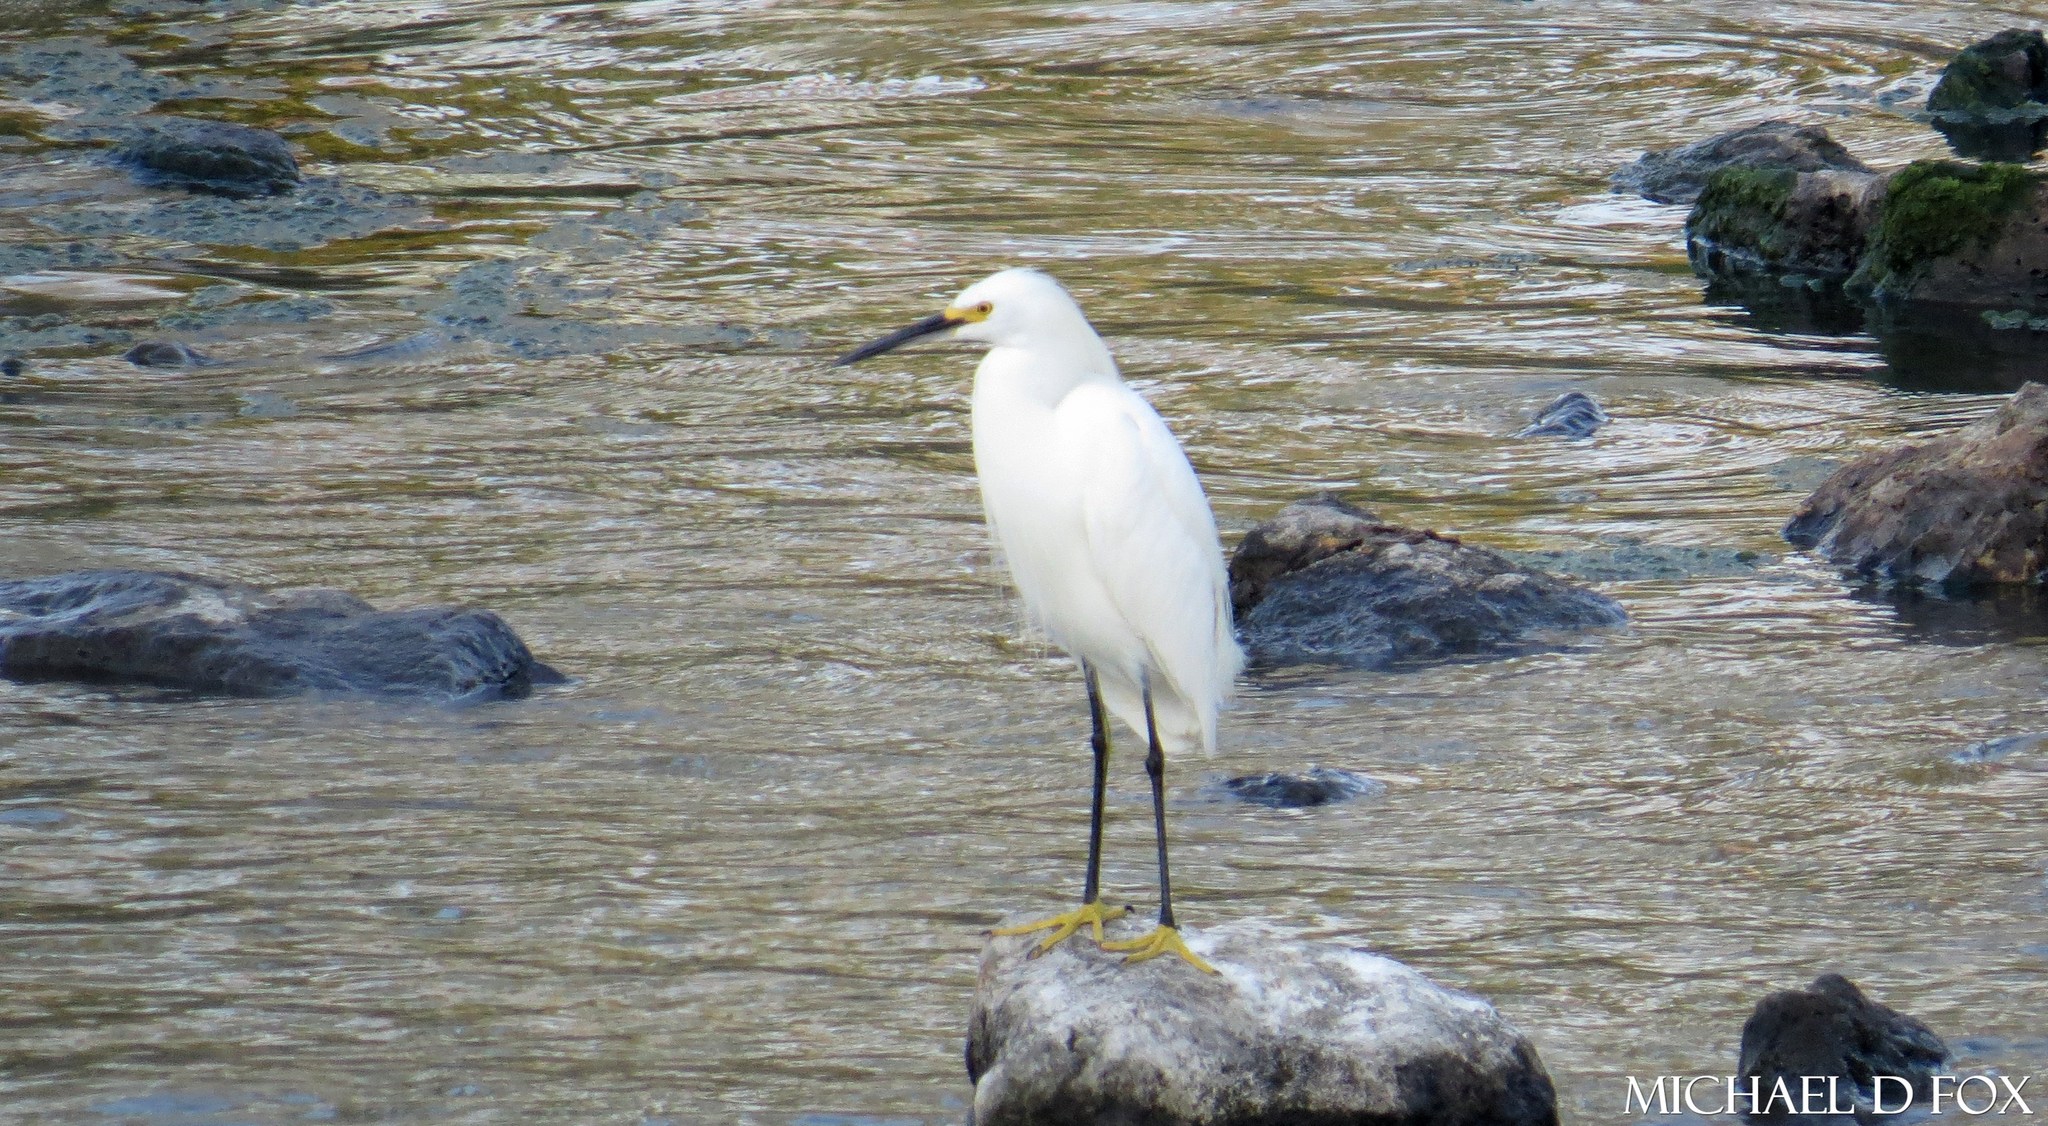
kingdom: Animalia
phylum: Chordata
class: Aves
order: Pelecaniformes
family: Ardeidae
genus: Egretta
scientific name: Egretta thula
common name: Snowy egret
